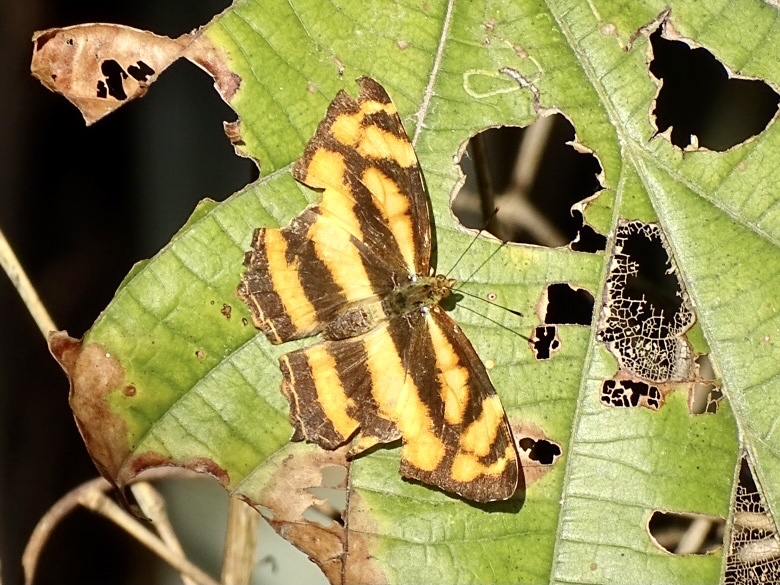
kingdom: Animalia
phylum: Arthropoda
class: Insecta
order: Lepidoptera
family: Nymphalidae
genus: Symbrenthia
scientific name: Symbrenthia hypselis
